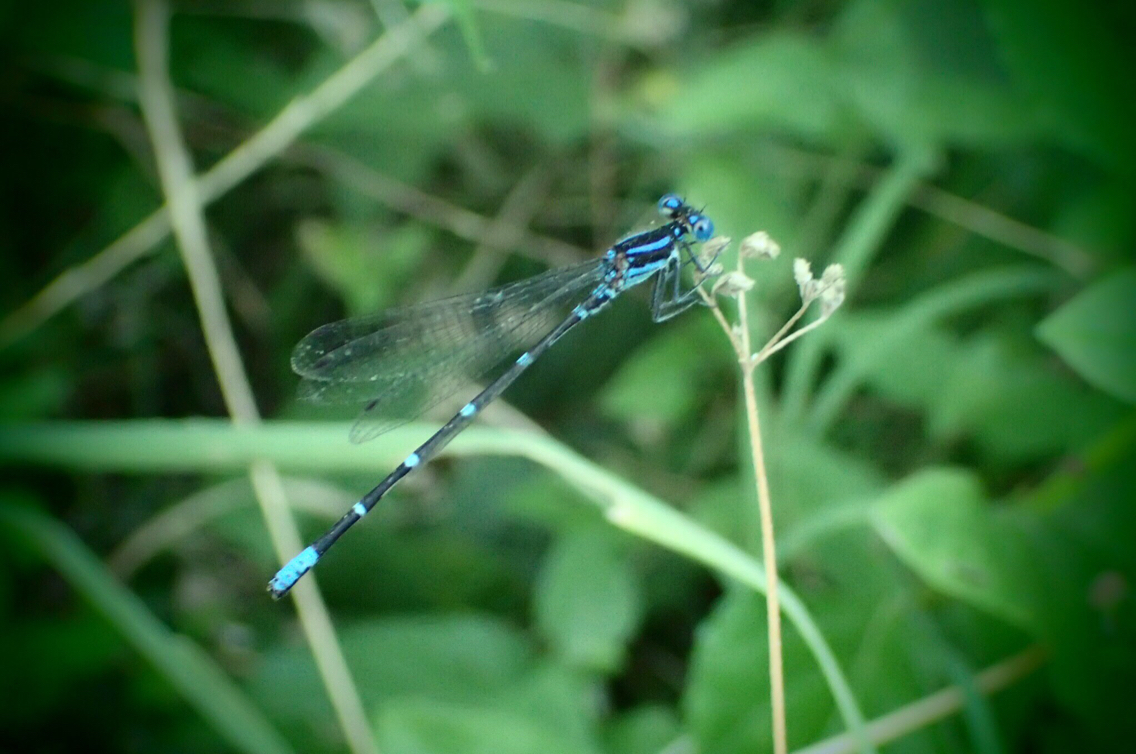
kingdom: Animalia
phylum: Arthropoda
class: Insecta
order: Odonata
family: Coenagrionidae
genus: Argia
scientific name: Argia sedula
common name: Blue-ringed dancer
